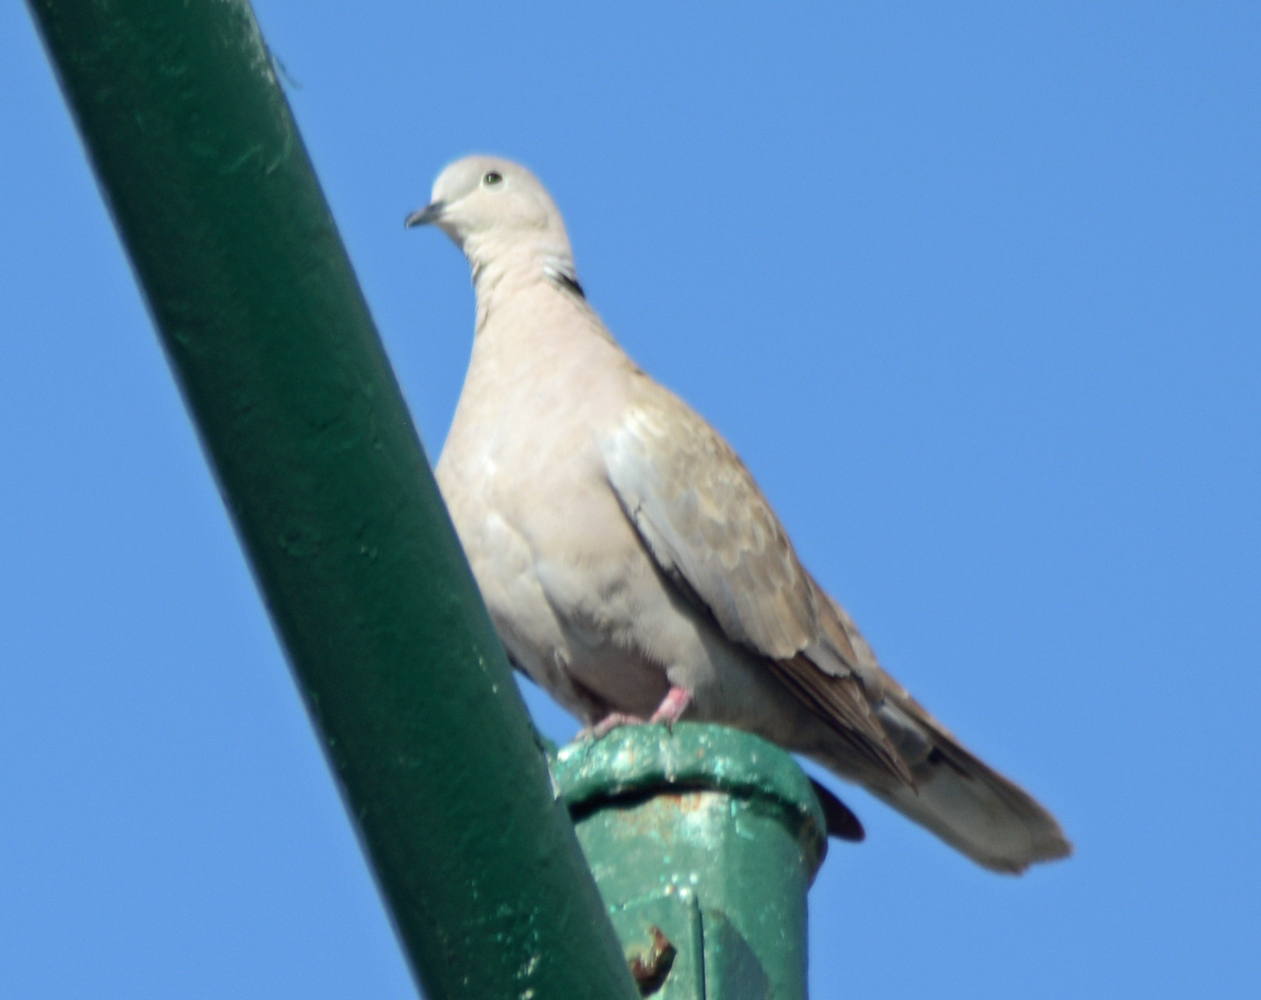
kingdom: Animalia
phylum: Chordata
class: Aves
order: Columbiformes
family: Columbidae
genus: Streptopelia
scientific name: Streptopelia decaocto
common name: Eurasian collared dove
